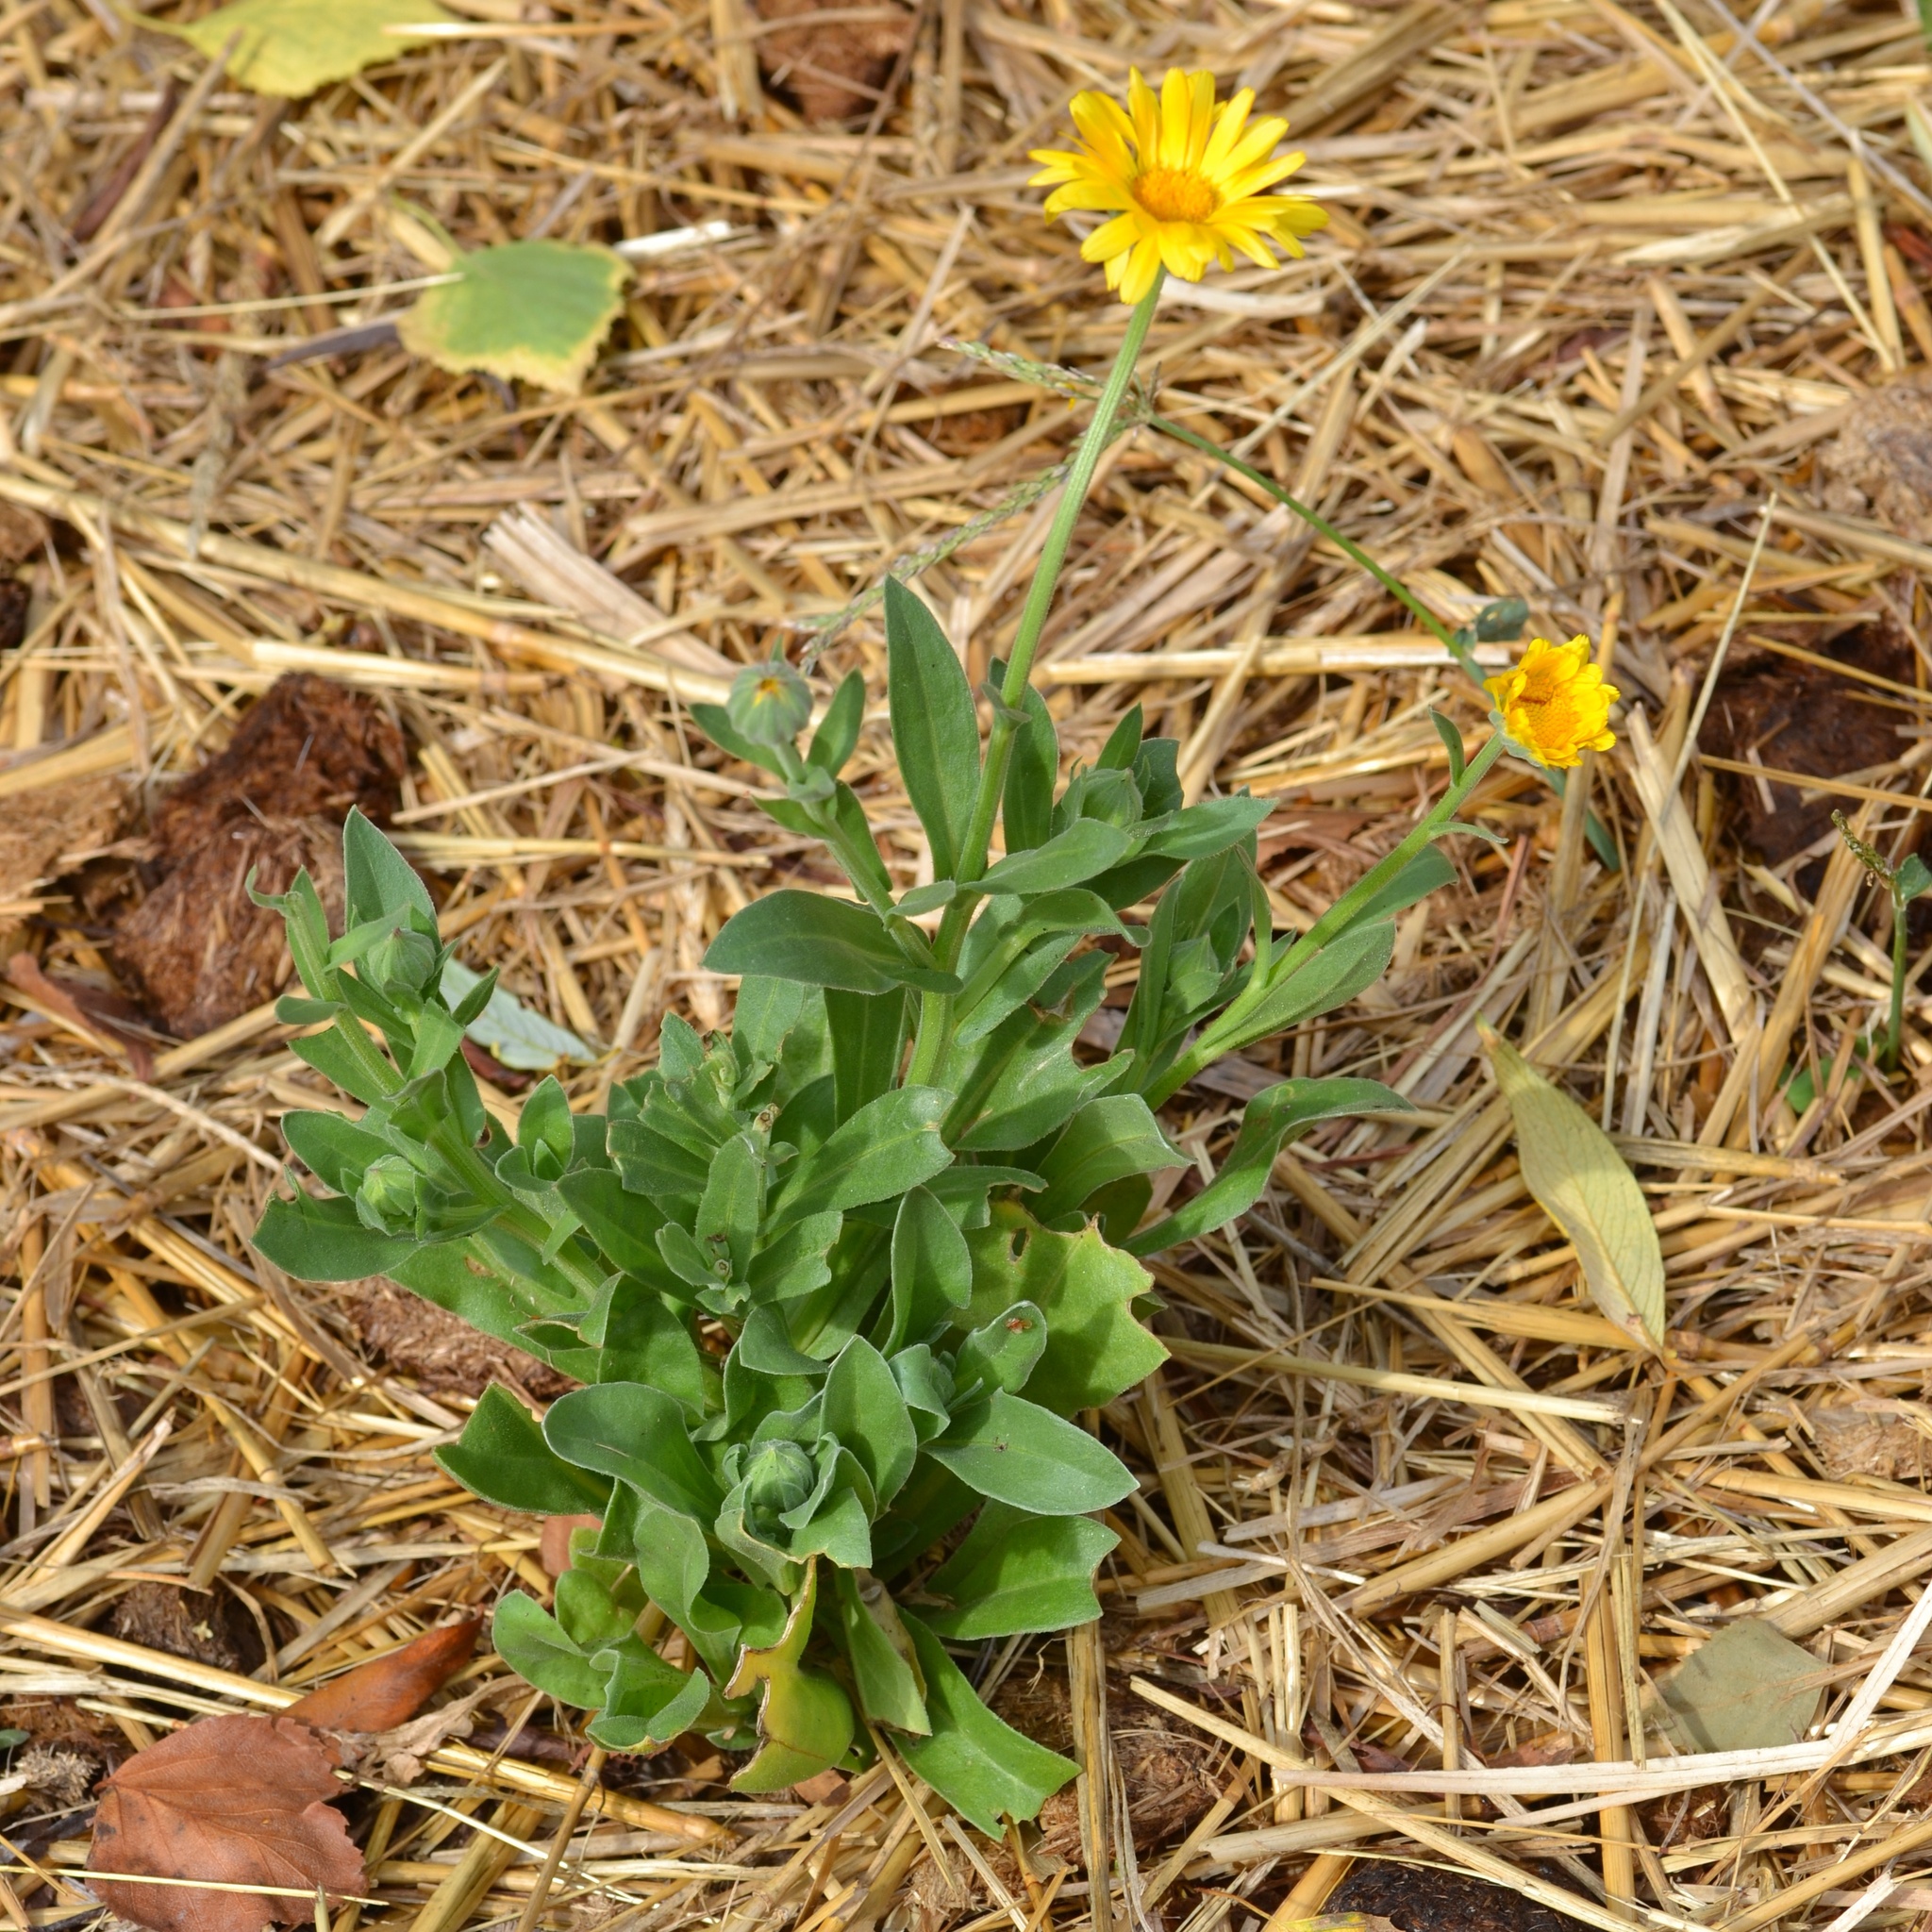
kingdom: Plantae
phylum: Tracheophyta
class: Magnoliopsida
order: Asterales
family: Asteraceae
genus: Calendula
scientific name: Calendula officinalis
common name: Pot marigold
